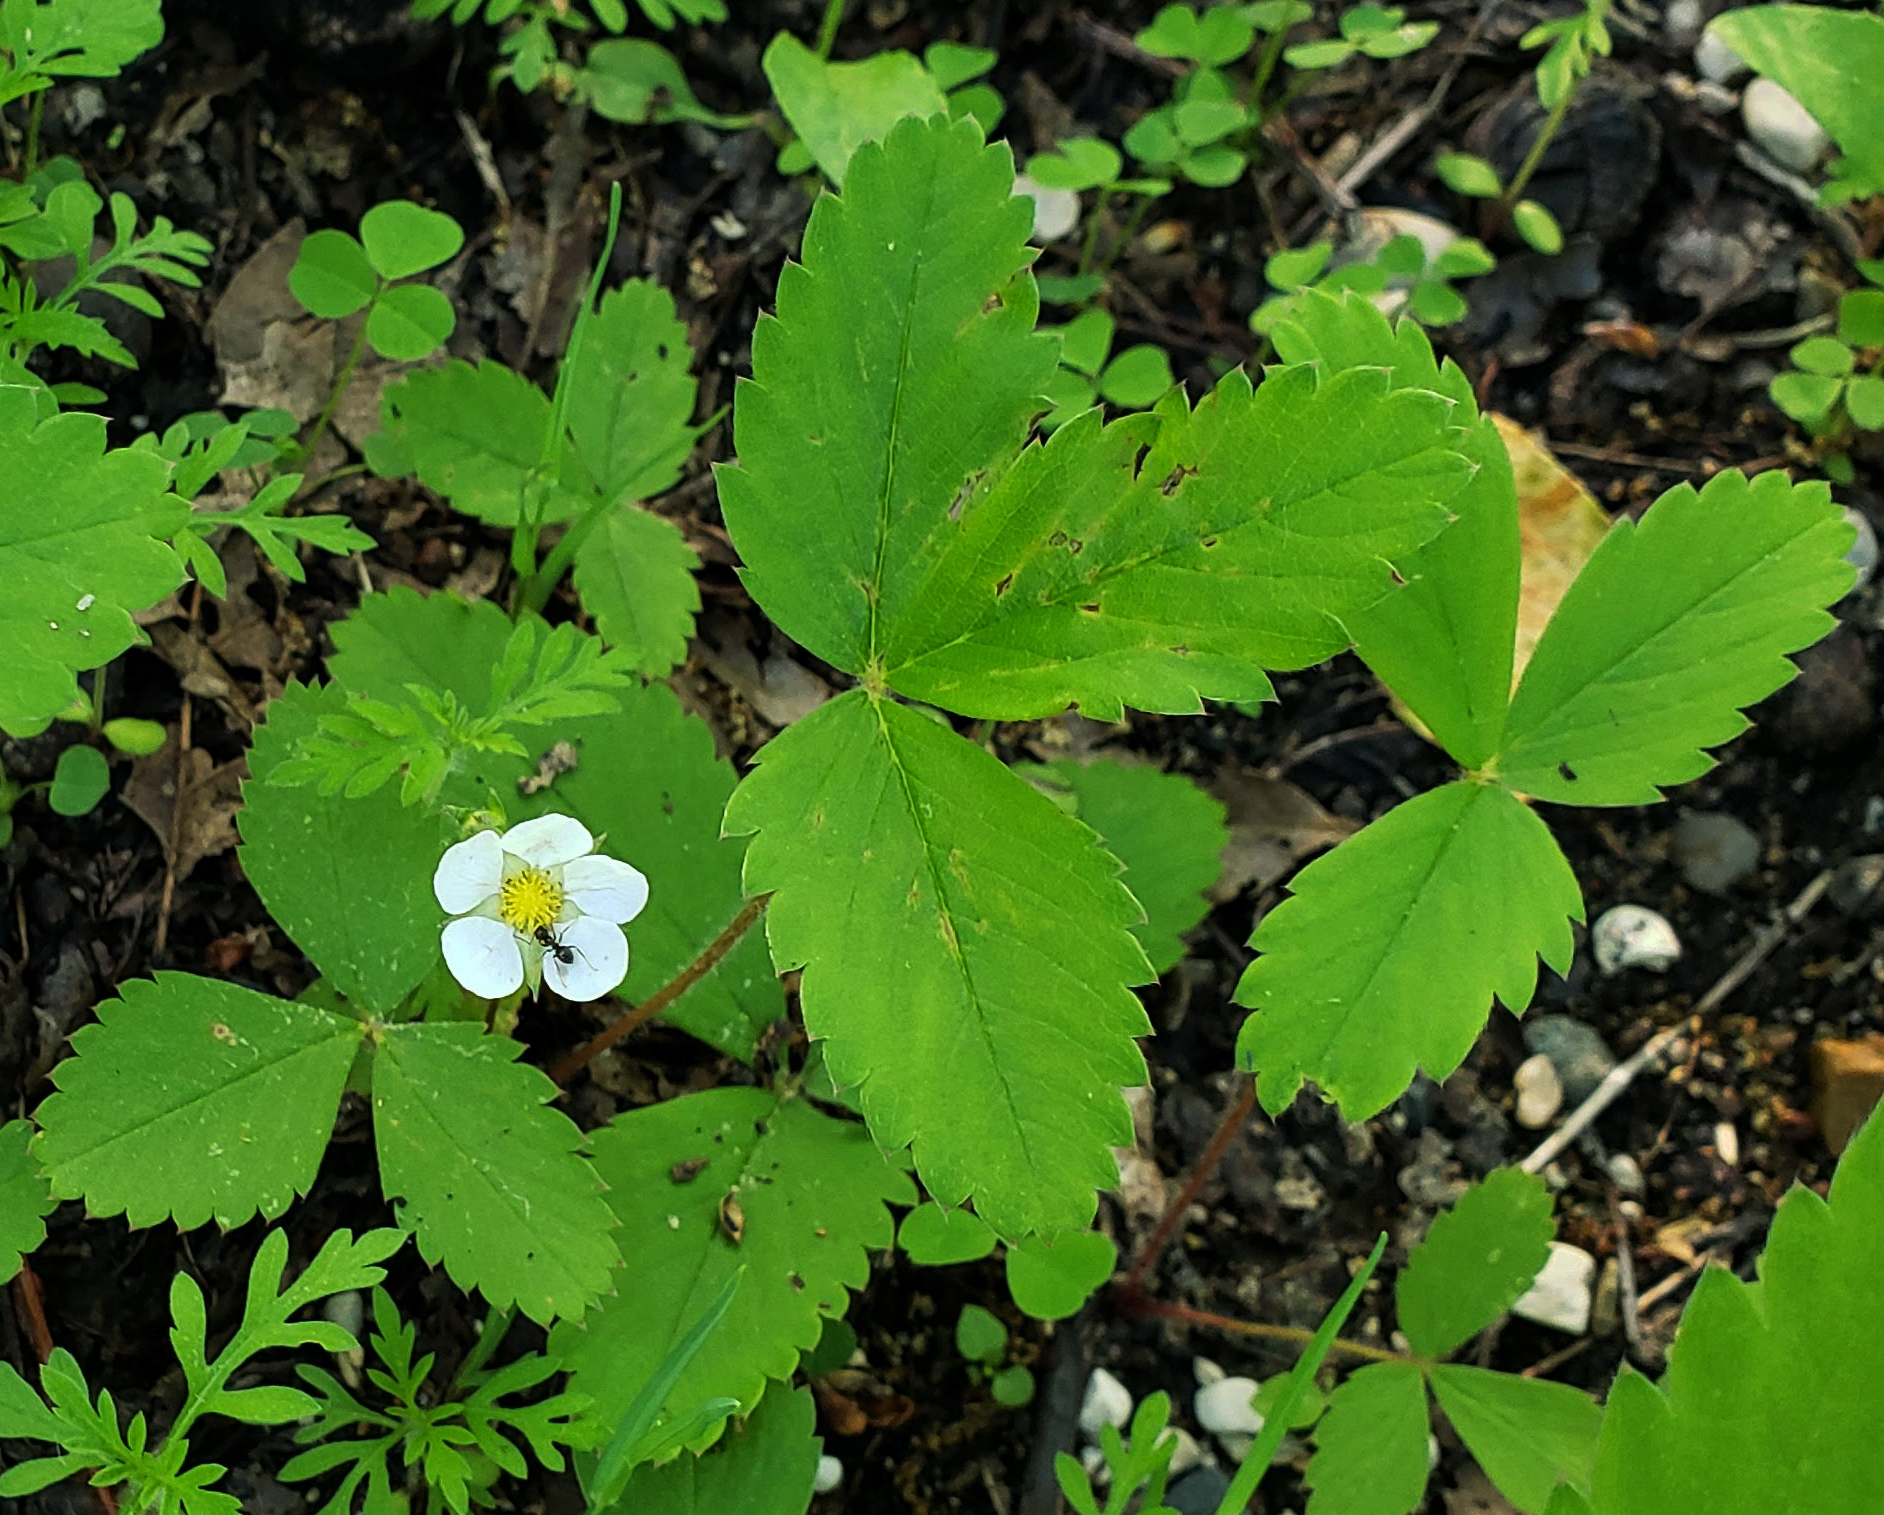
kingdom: Plantae
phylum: Tracheophyta
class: Magnoliopsida
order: Rosales
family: Rosaceae
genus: Fragaria
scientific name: Fragaria virginiana
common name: Thickleaved wild strawberry
